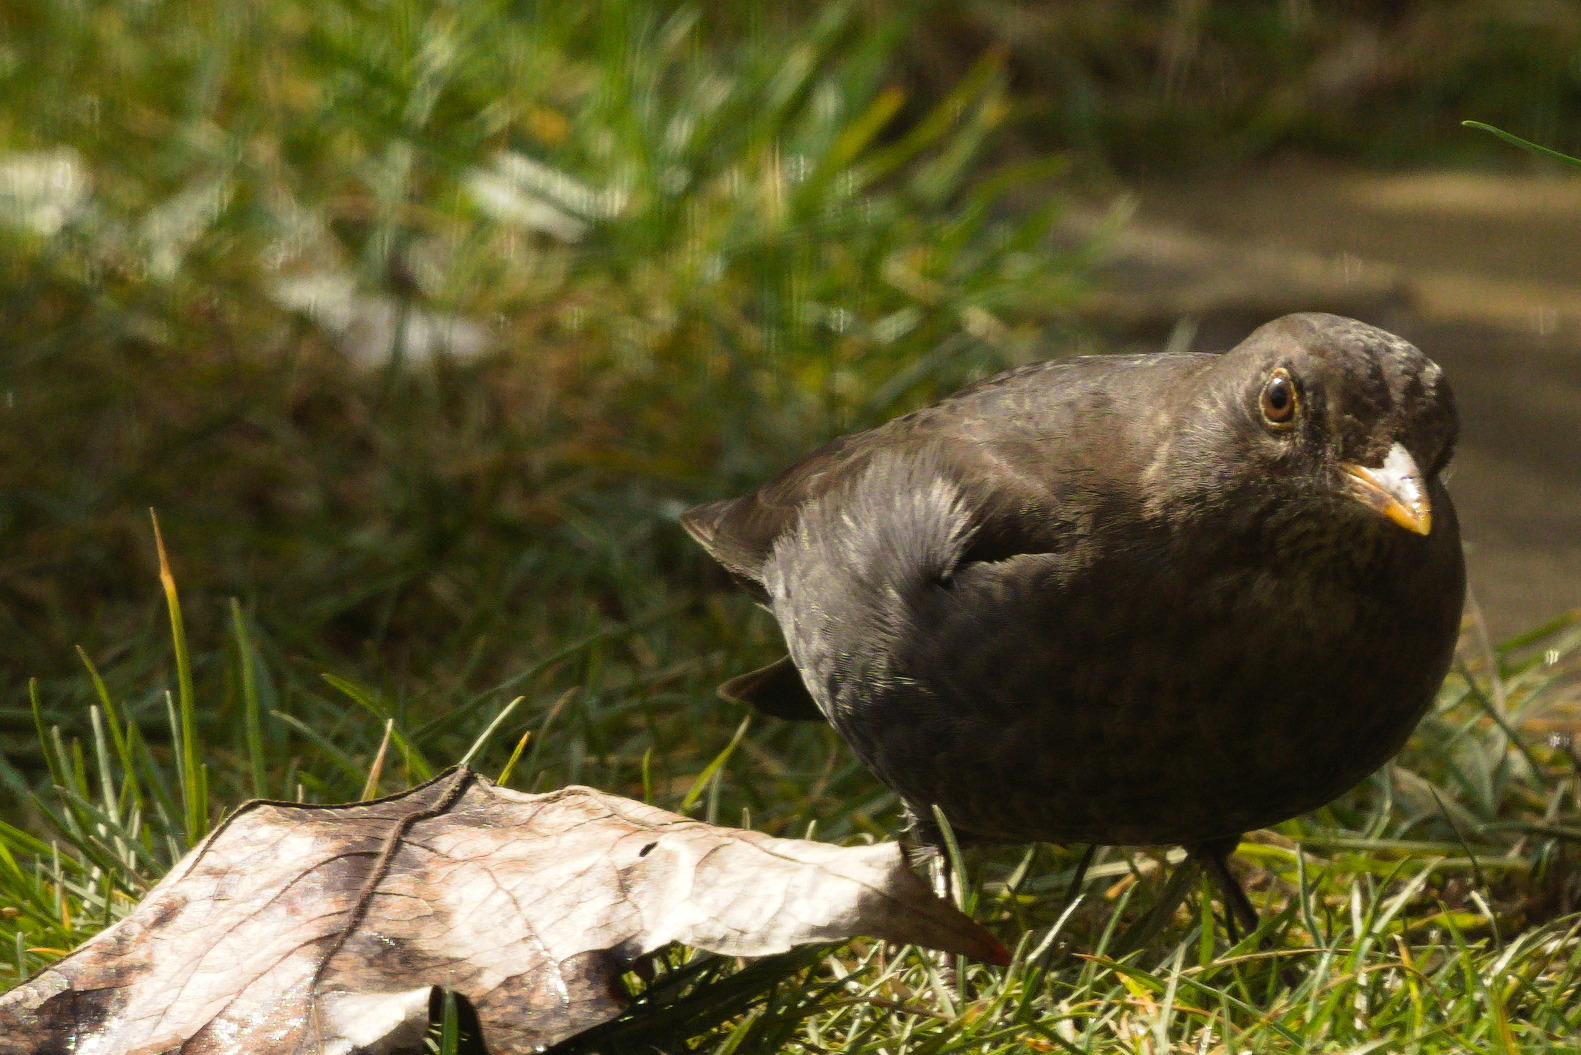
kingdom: Animalia
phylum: Chordata
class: Aves
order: Passeriformes
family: Turdidae
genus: Turdus
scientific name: Turdus merula
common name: Common blackbird
